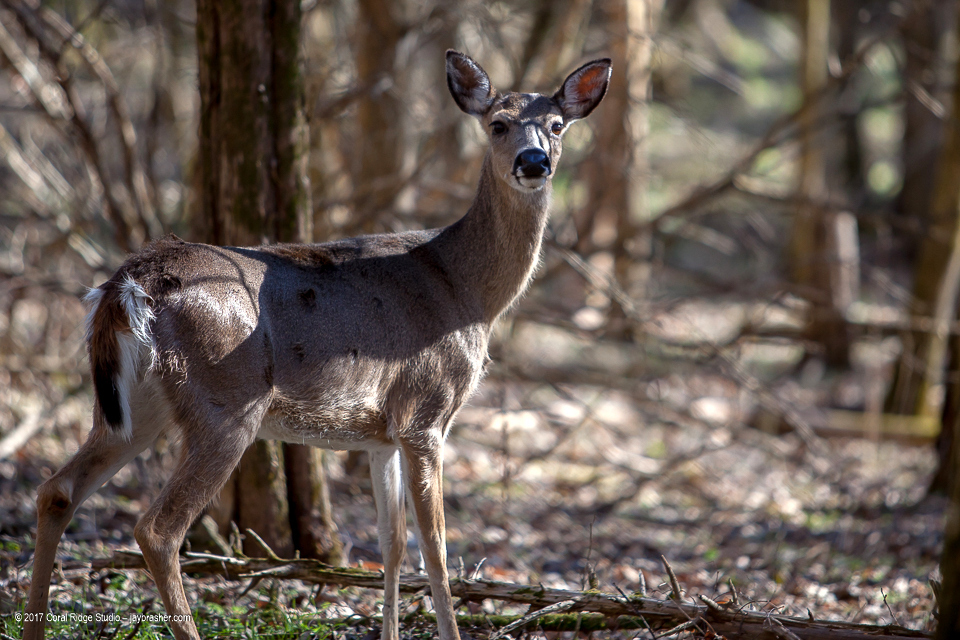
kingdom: Animalia
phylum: Chordata
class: Mammalia
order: Artiodactyla
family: Cervidae
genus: Odocoileus
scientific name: Odocoileus virginianus
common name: White-tailed deer
